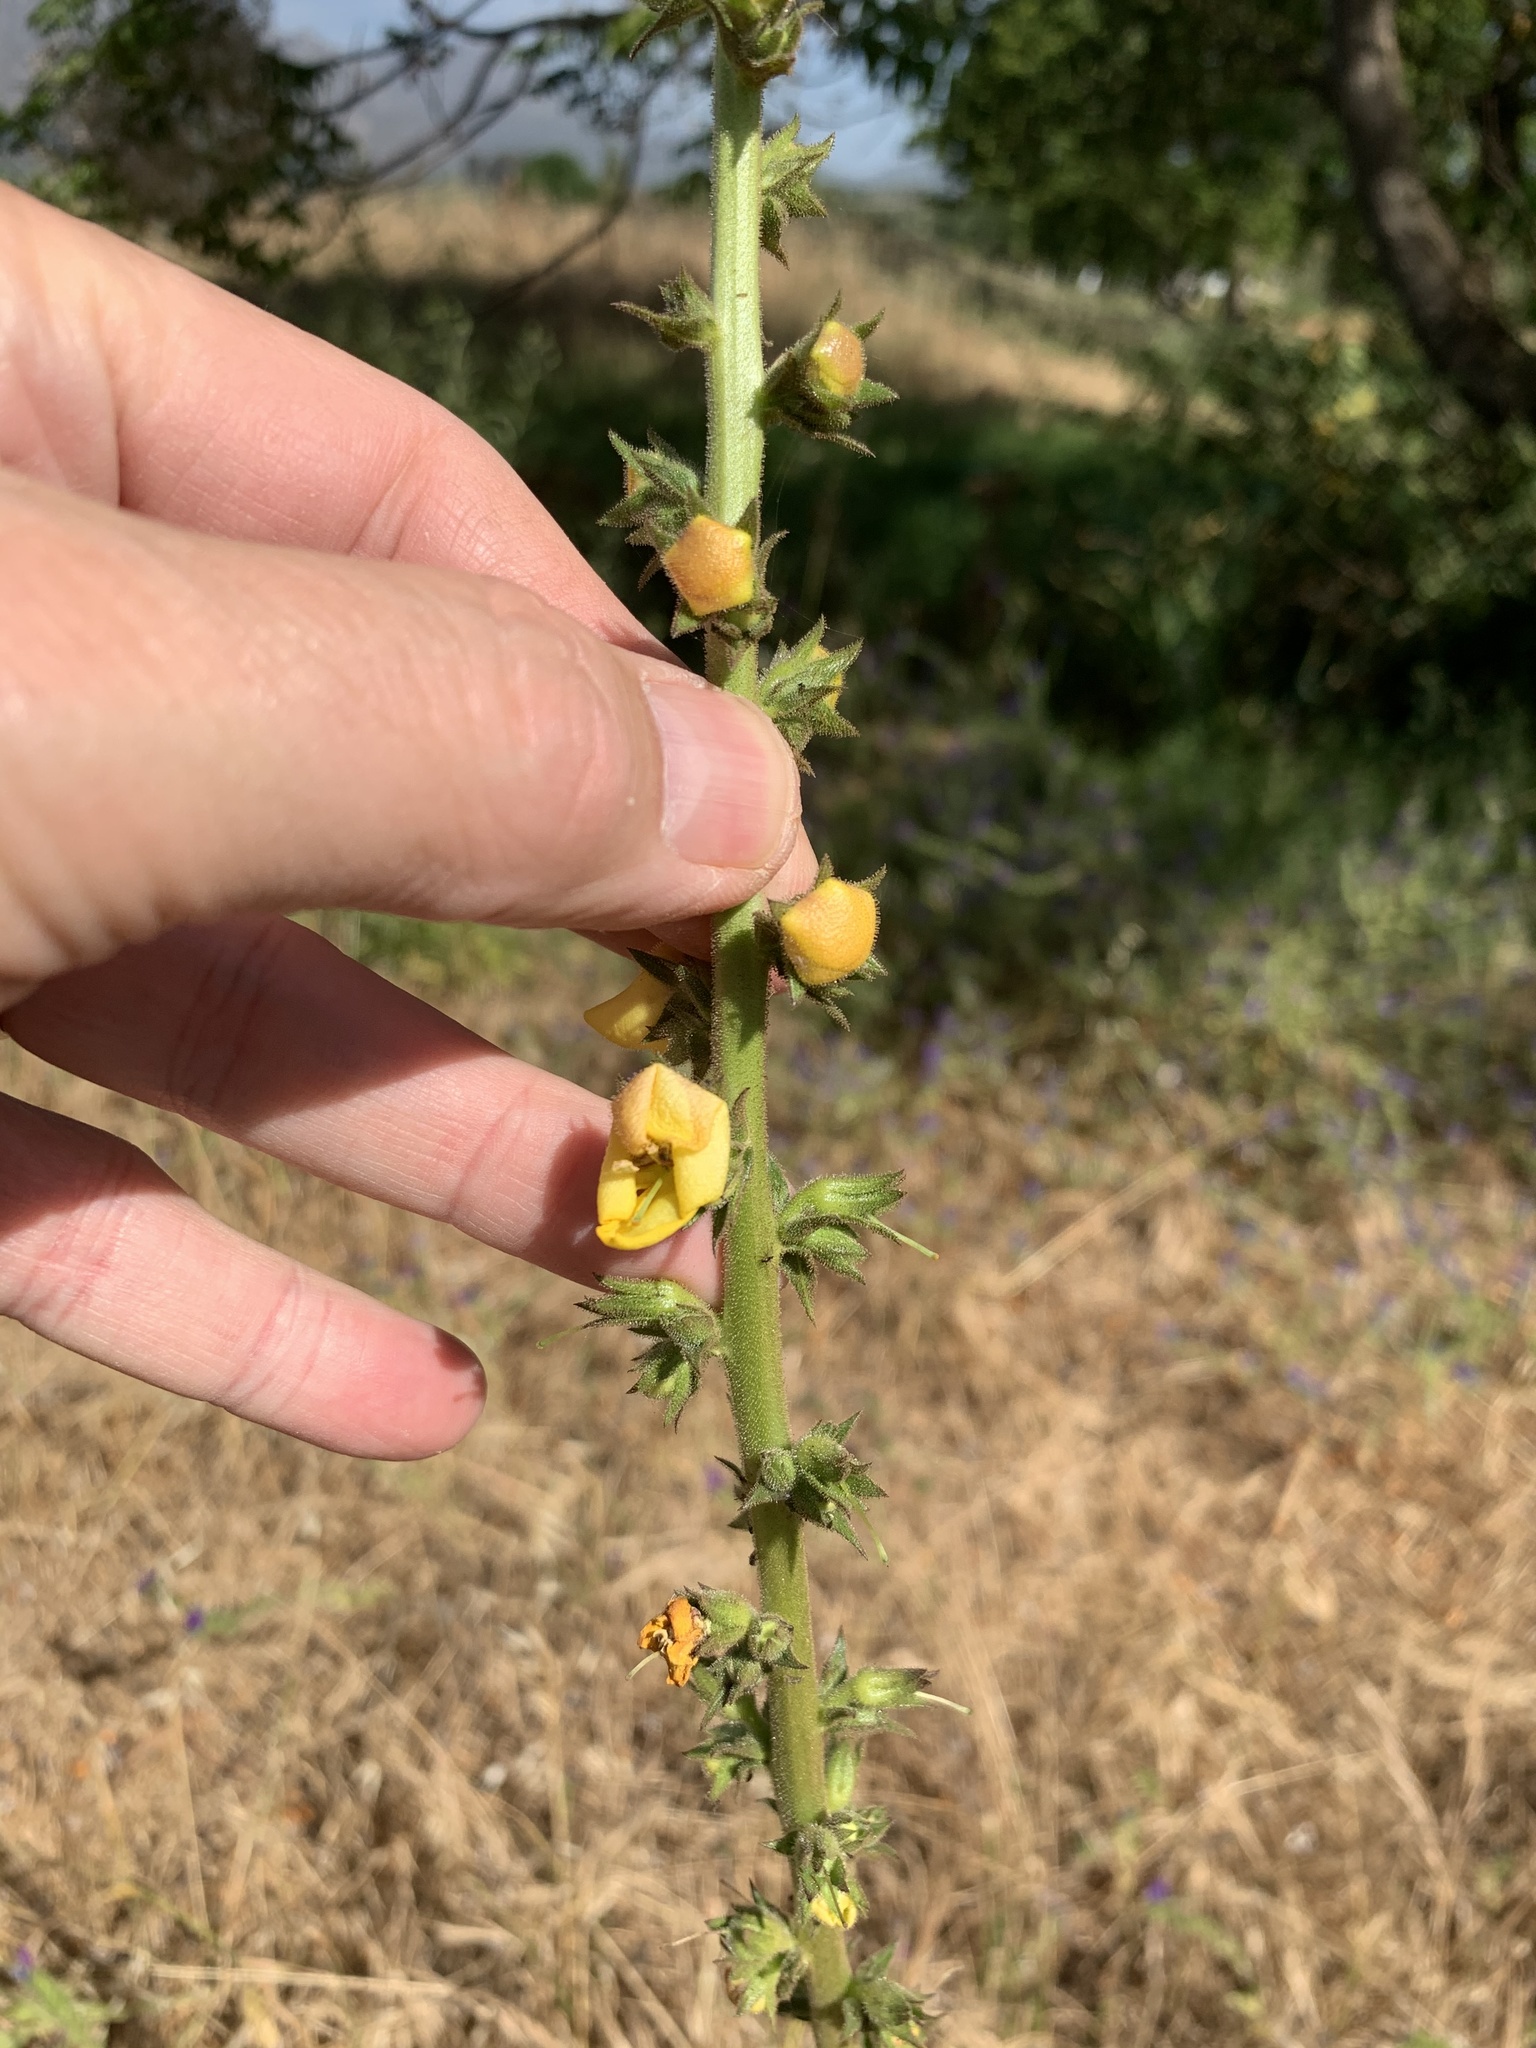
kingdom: Plantae
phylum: Tracheophyta
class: Magnoliopsida
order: Lamiales
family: Scrophulariaceae
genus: Verbascum
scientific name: Verbascum virgatum
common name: Twiggy mullein
